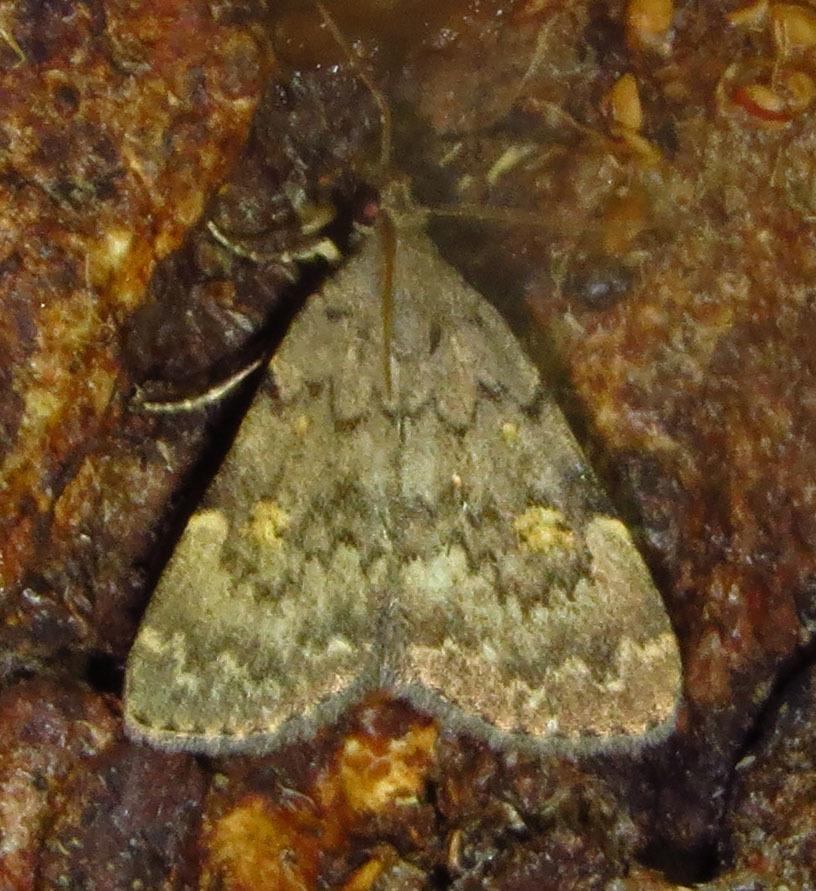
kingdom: Animalia
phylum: Arthropoda
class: Insecta
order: Lepidoptera
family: Erebidae
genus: Idia
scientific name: Idia aemula
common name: Common idia moth
